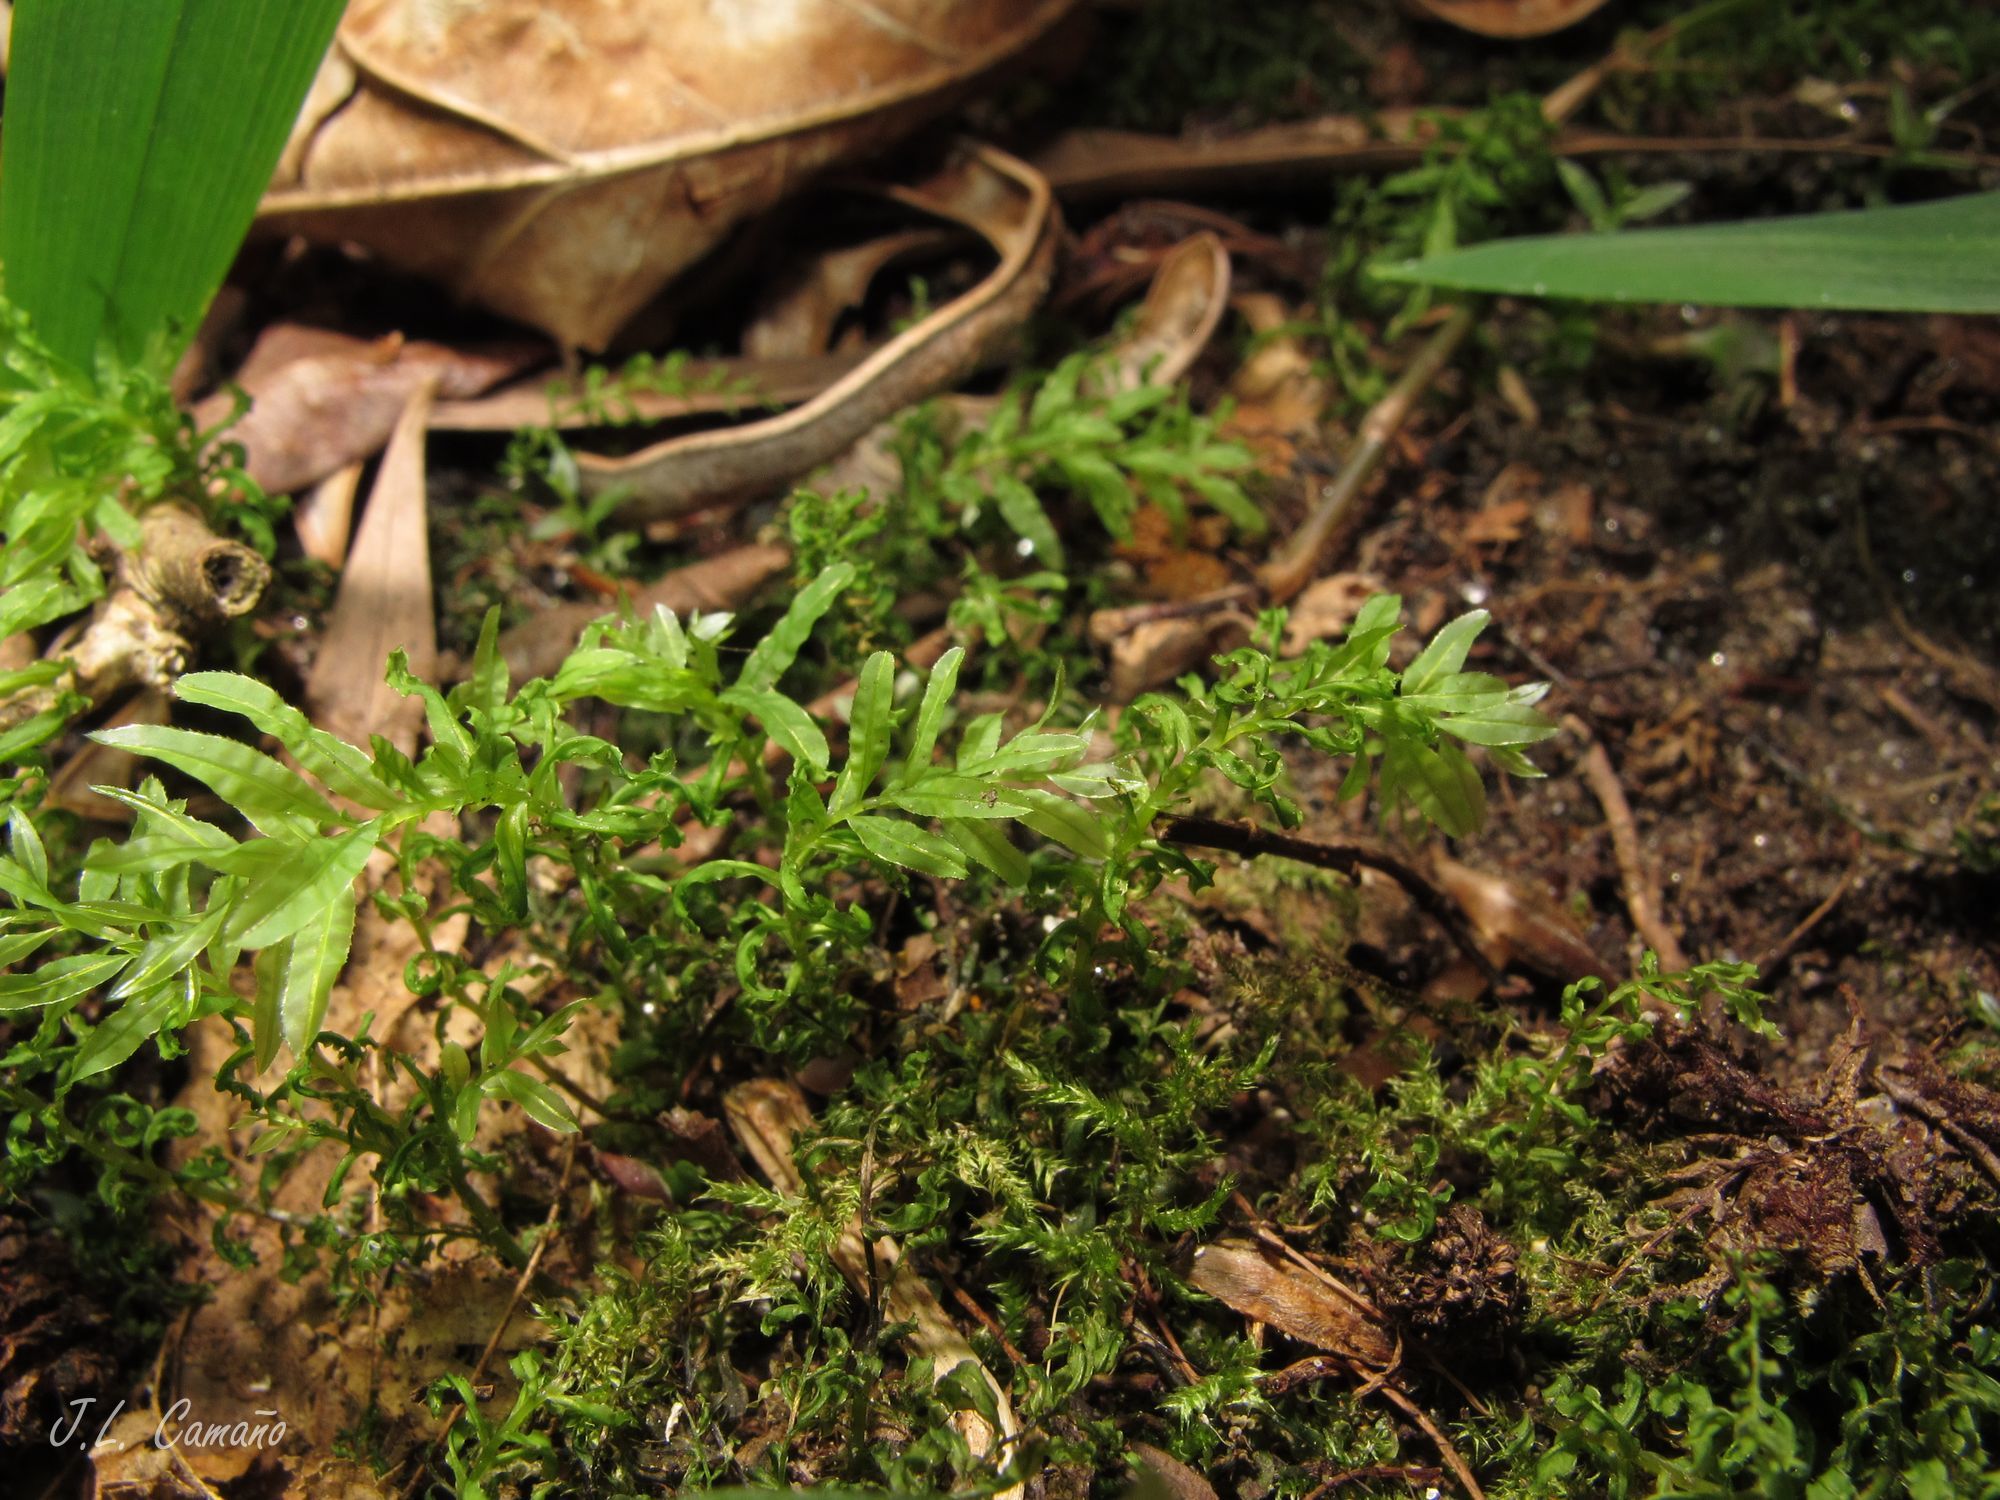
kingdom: Plantae
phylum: Bryophyta
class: Bryopsida
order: Bryales
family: Mniaceae
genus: Plagiomnium
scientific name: Plagiomnium undulatum
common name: Hart's-tongue thyme-moss
